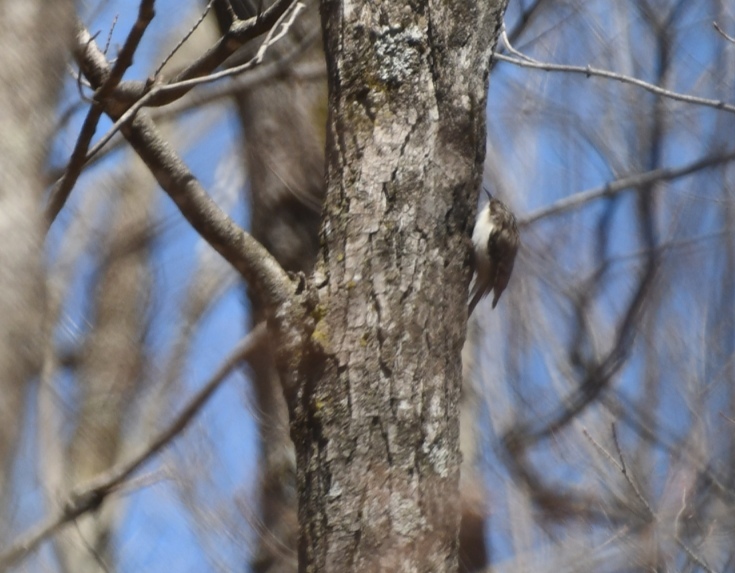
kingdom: Animalia
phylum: Chordata
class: Aves
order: Passeriformes
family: Certhiidae
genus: Certhia
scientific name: Certhia americana
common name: Brown creeper
